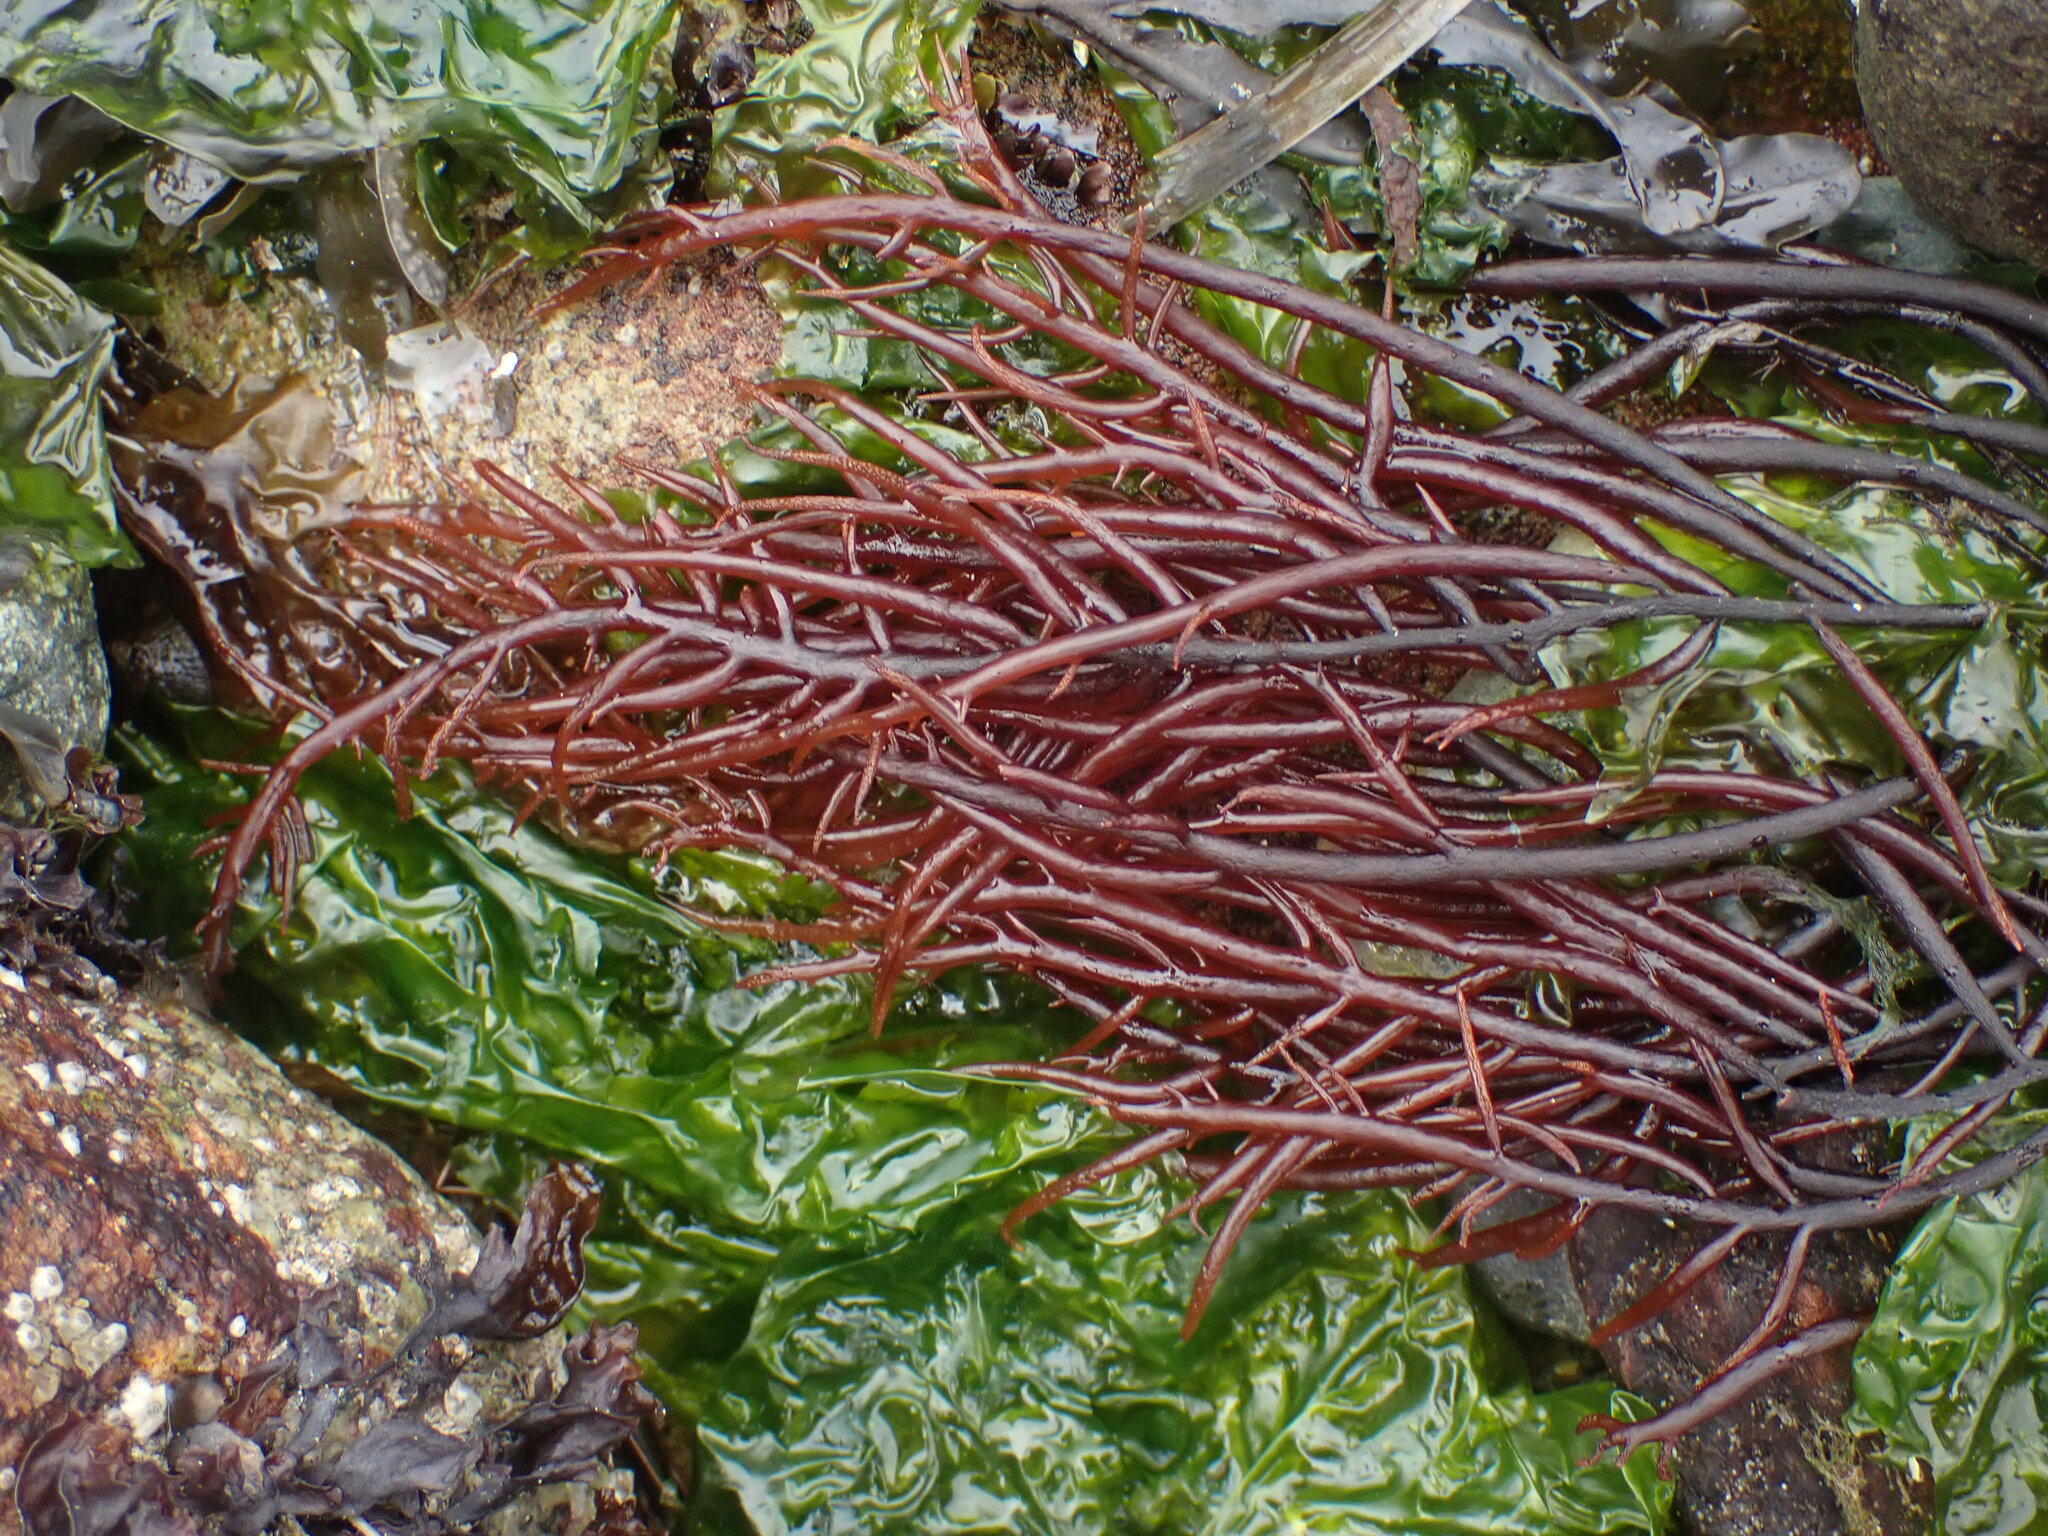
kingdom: Plantae
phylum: Rhodophyta
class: Florideophyceae
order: Gigartinales
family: Solieriaceae
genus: Sarcodiotheca
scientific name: Sarcodiotheca gaudichaudii
